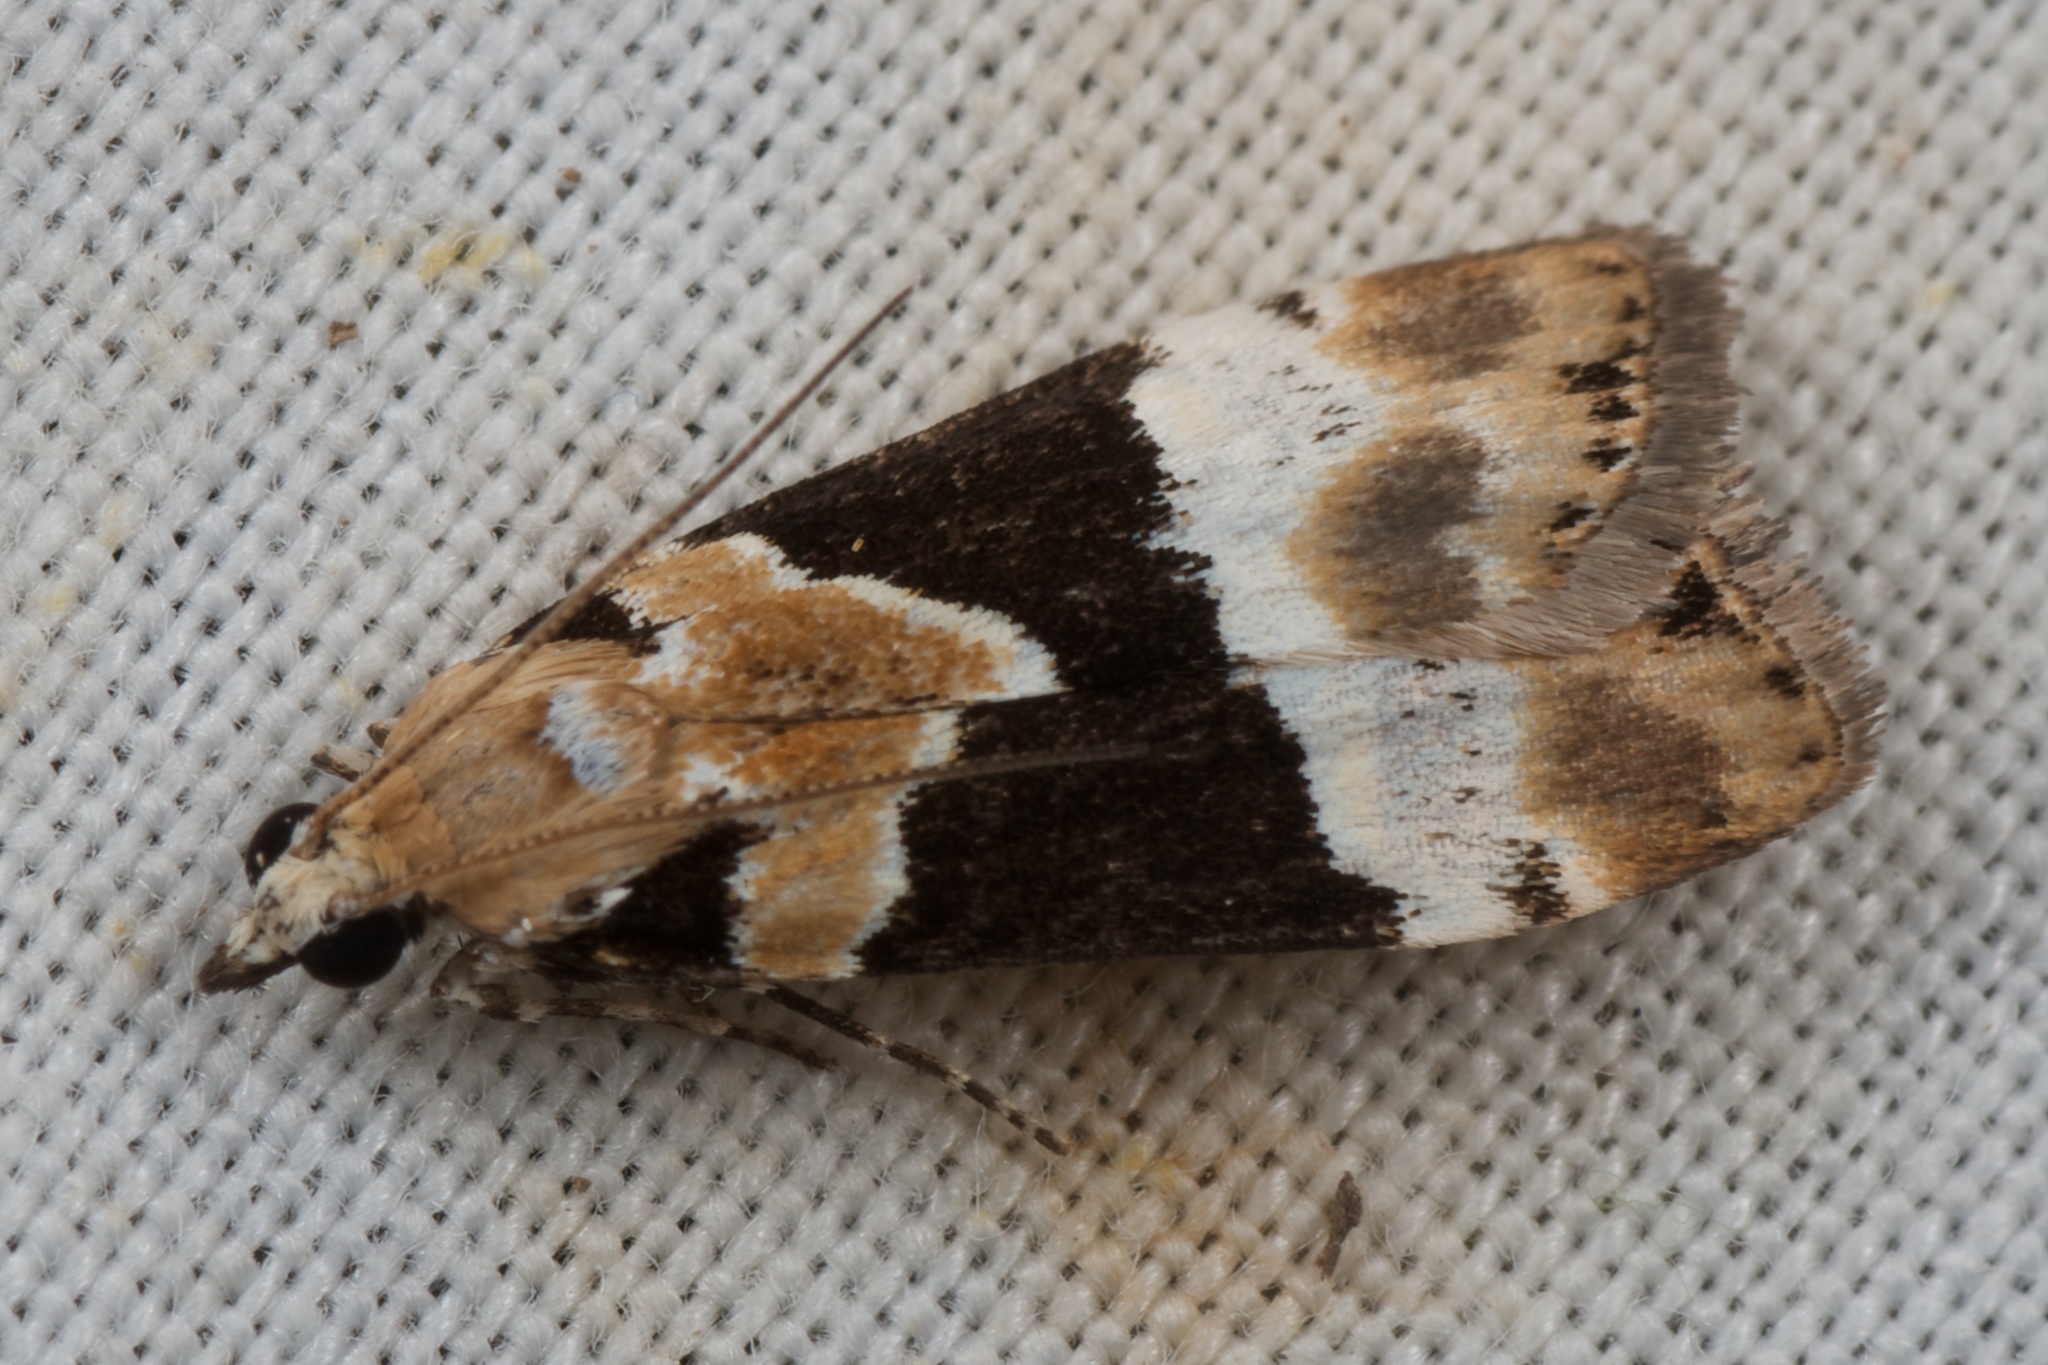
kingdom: Animalia
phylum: Arthropoda
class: Insecta
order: Lepidoptera
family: Crambidae
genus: Eudonia
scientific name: Eudonia aspidota
